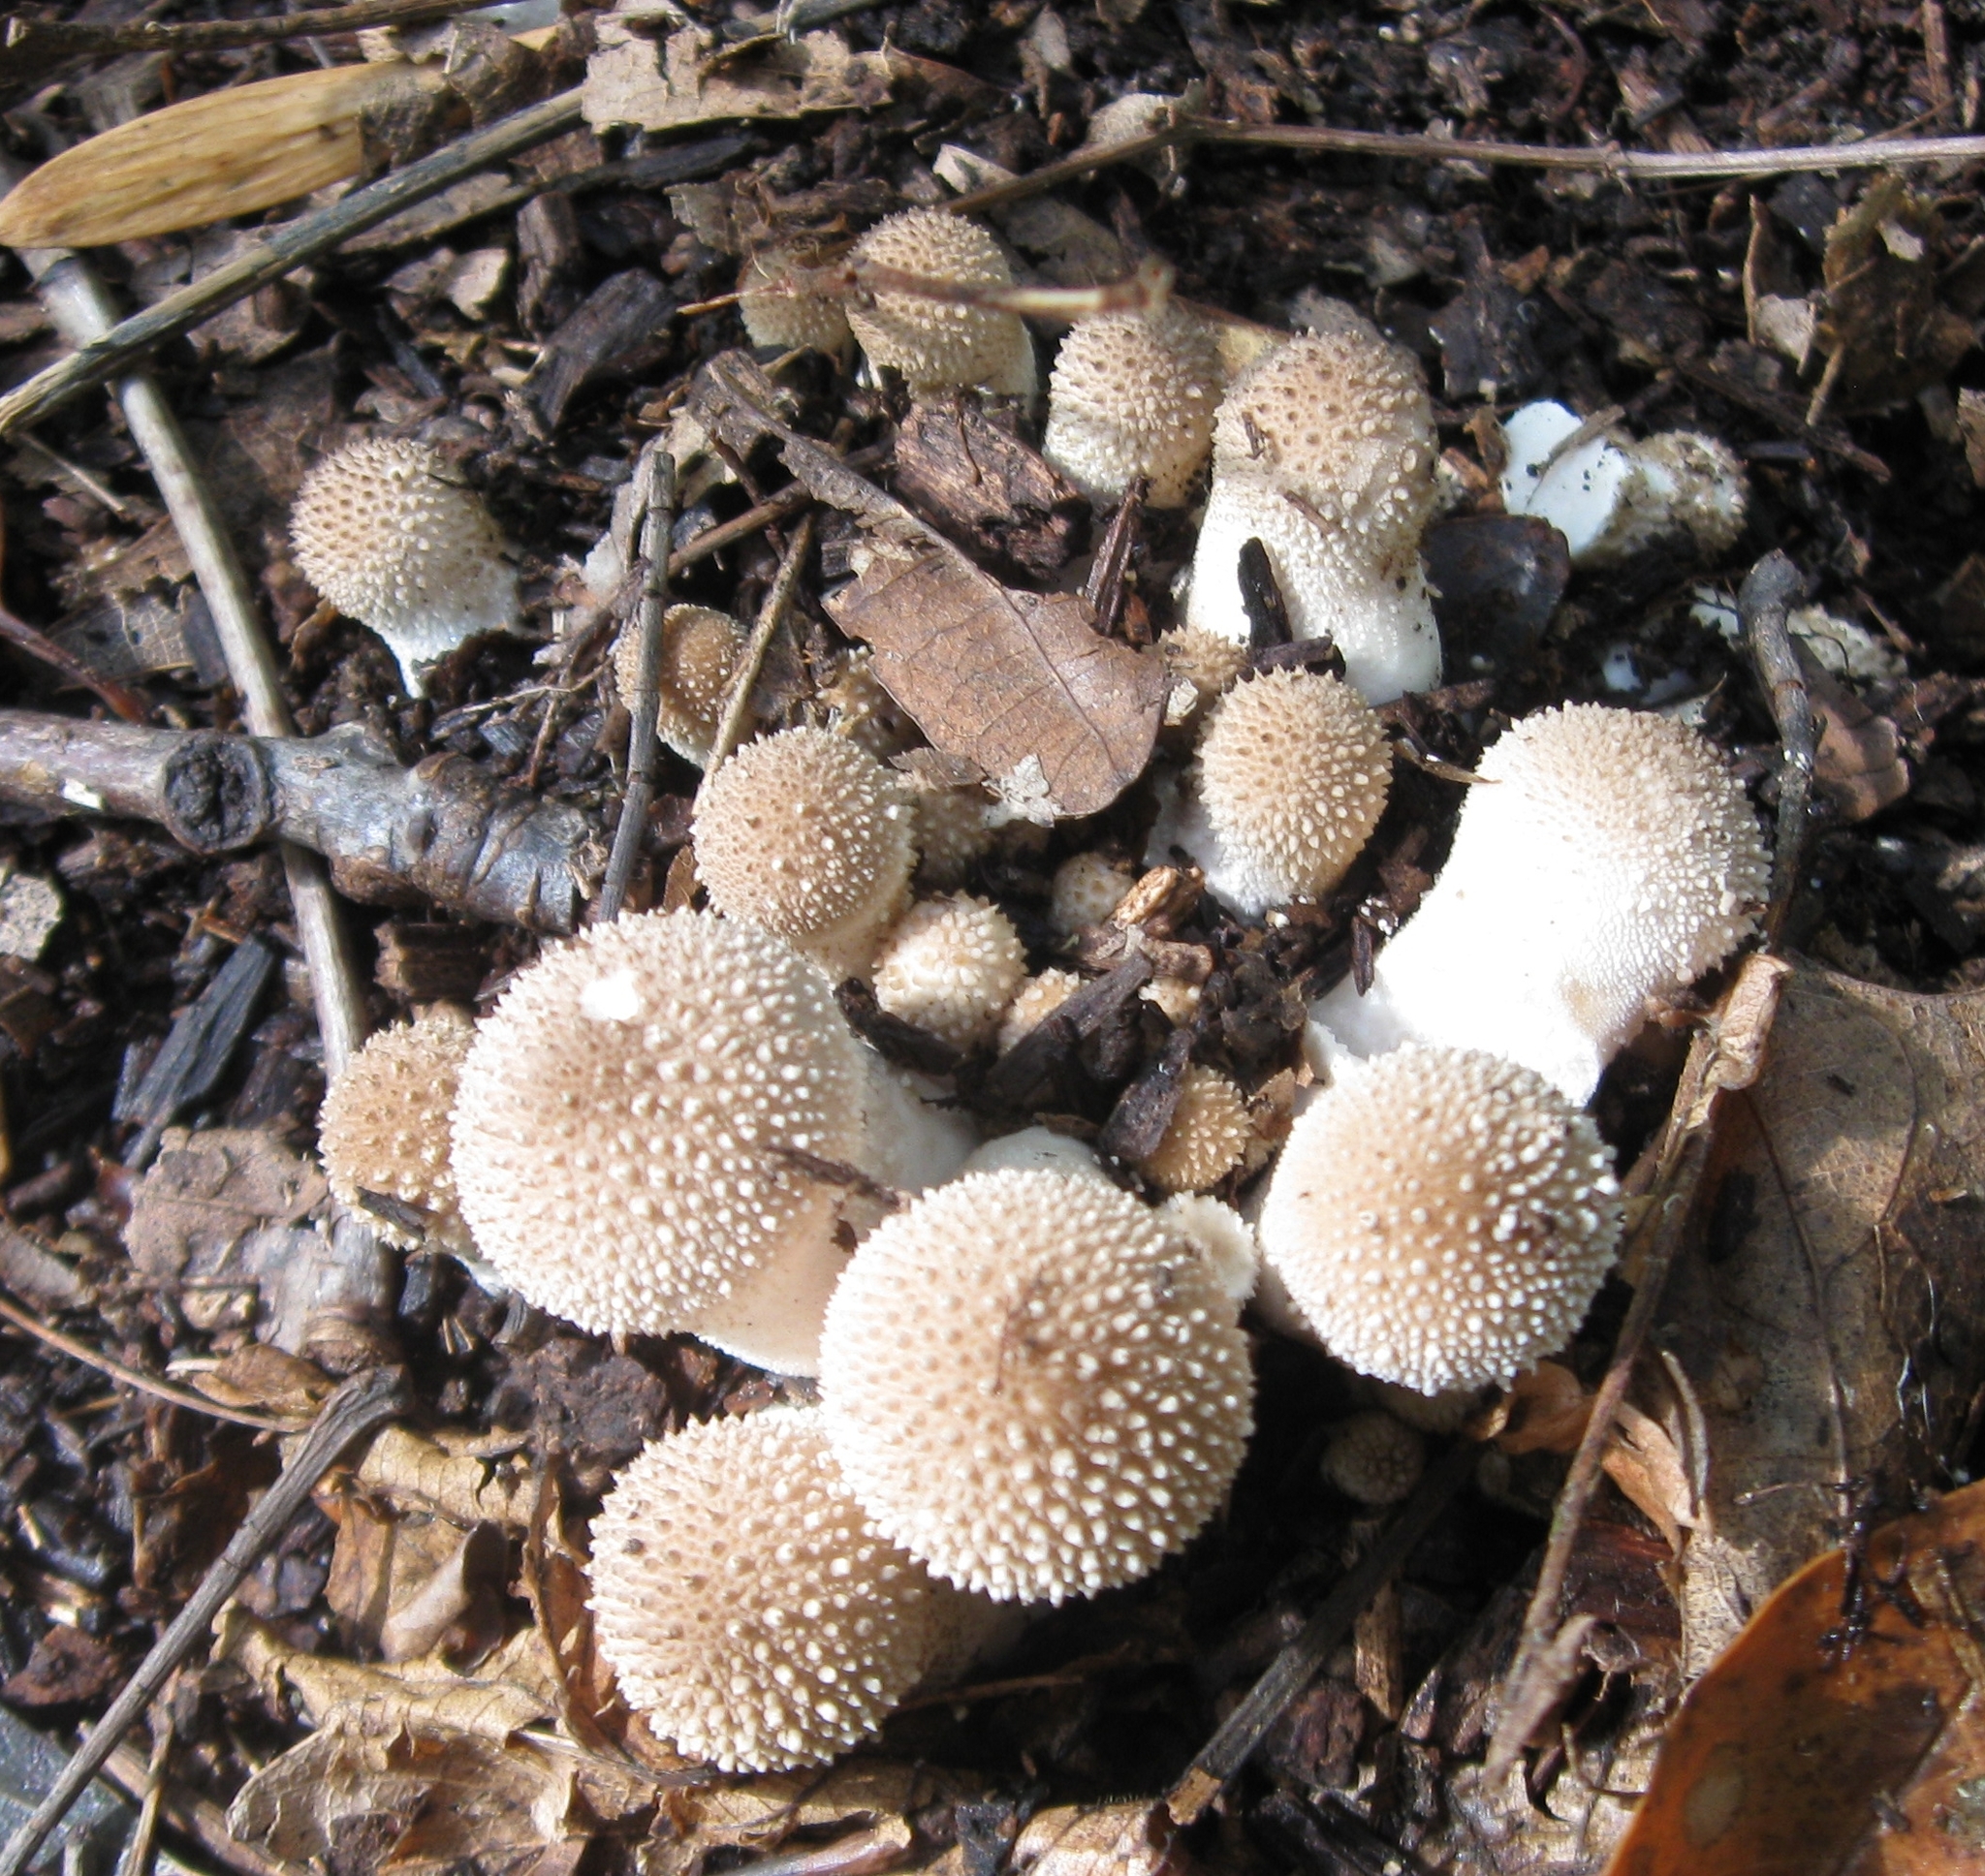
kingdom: Fungi
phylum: Basidiomycota
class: Agaricomycetes
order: Agaricales
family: Lycoperdaceae
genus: Lycoperdon
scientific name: Lycoperdon perlatum
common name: Common puffball
